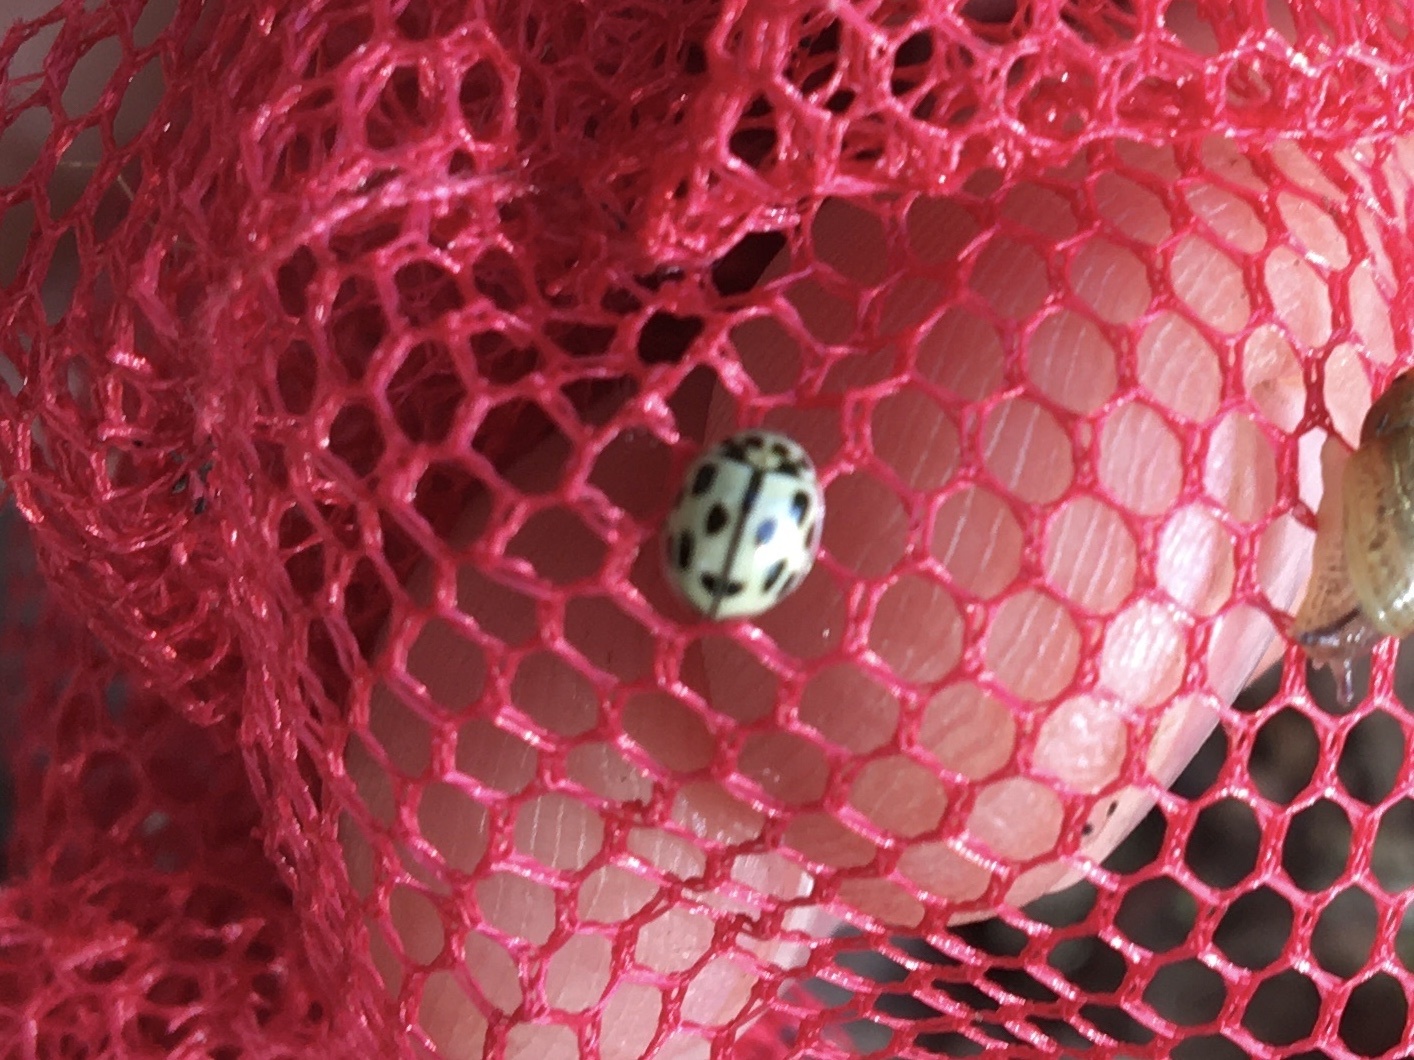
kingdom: Animalia
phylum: Arthropoda
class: Insecta
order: Coleoptera
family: Coccinellidae
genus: Propylaea
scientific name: Propylaea quatuordecimpunctata
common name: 14-spotted ladybird beetle
